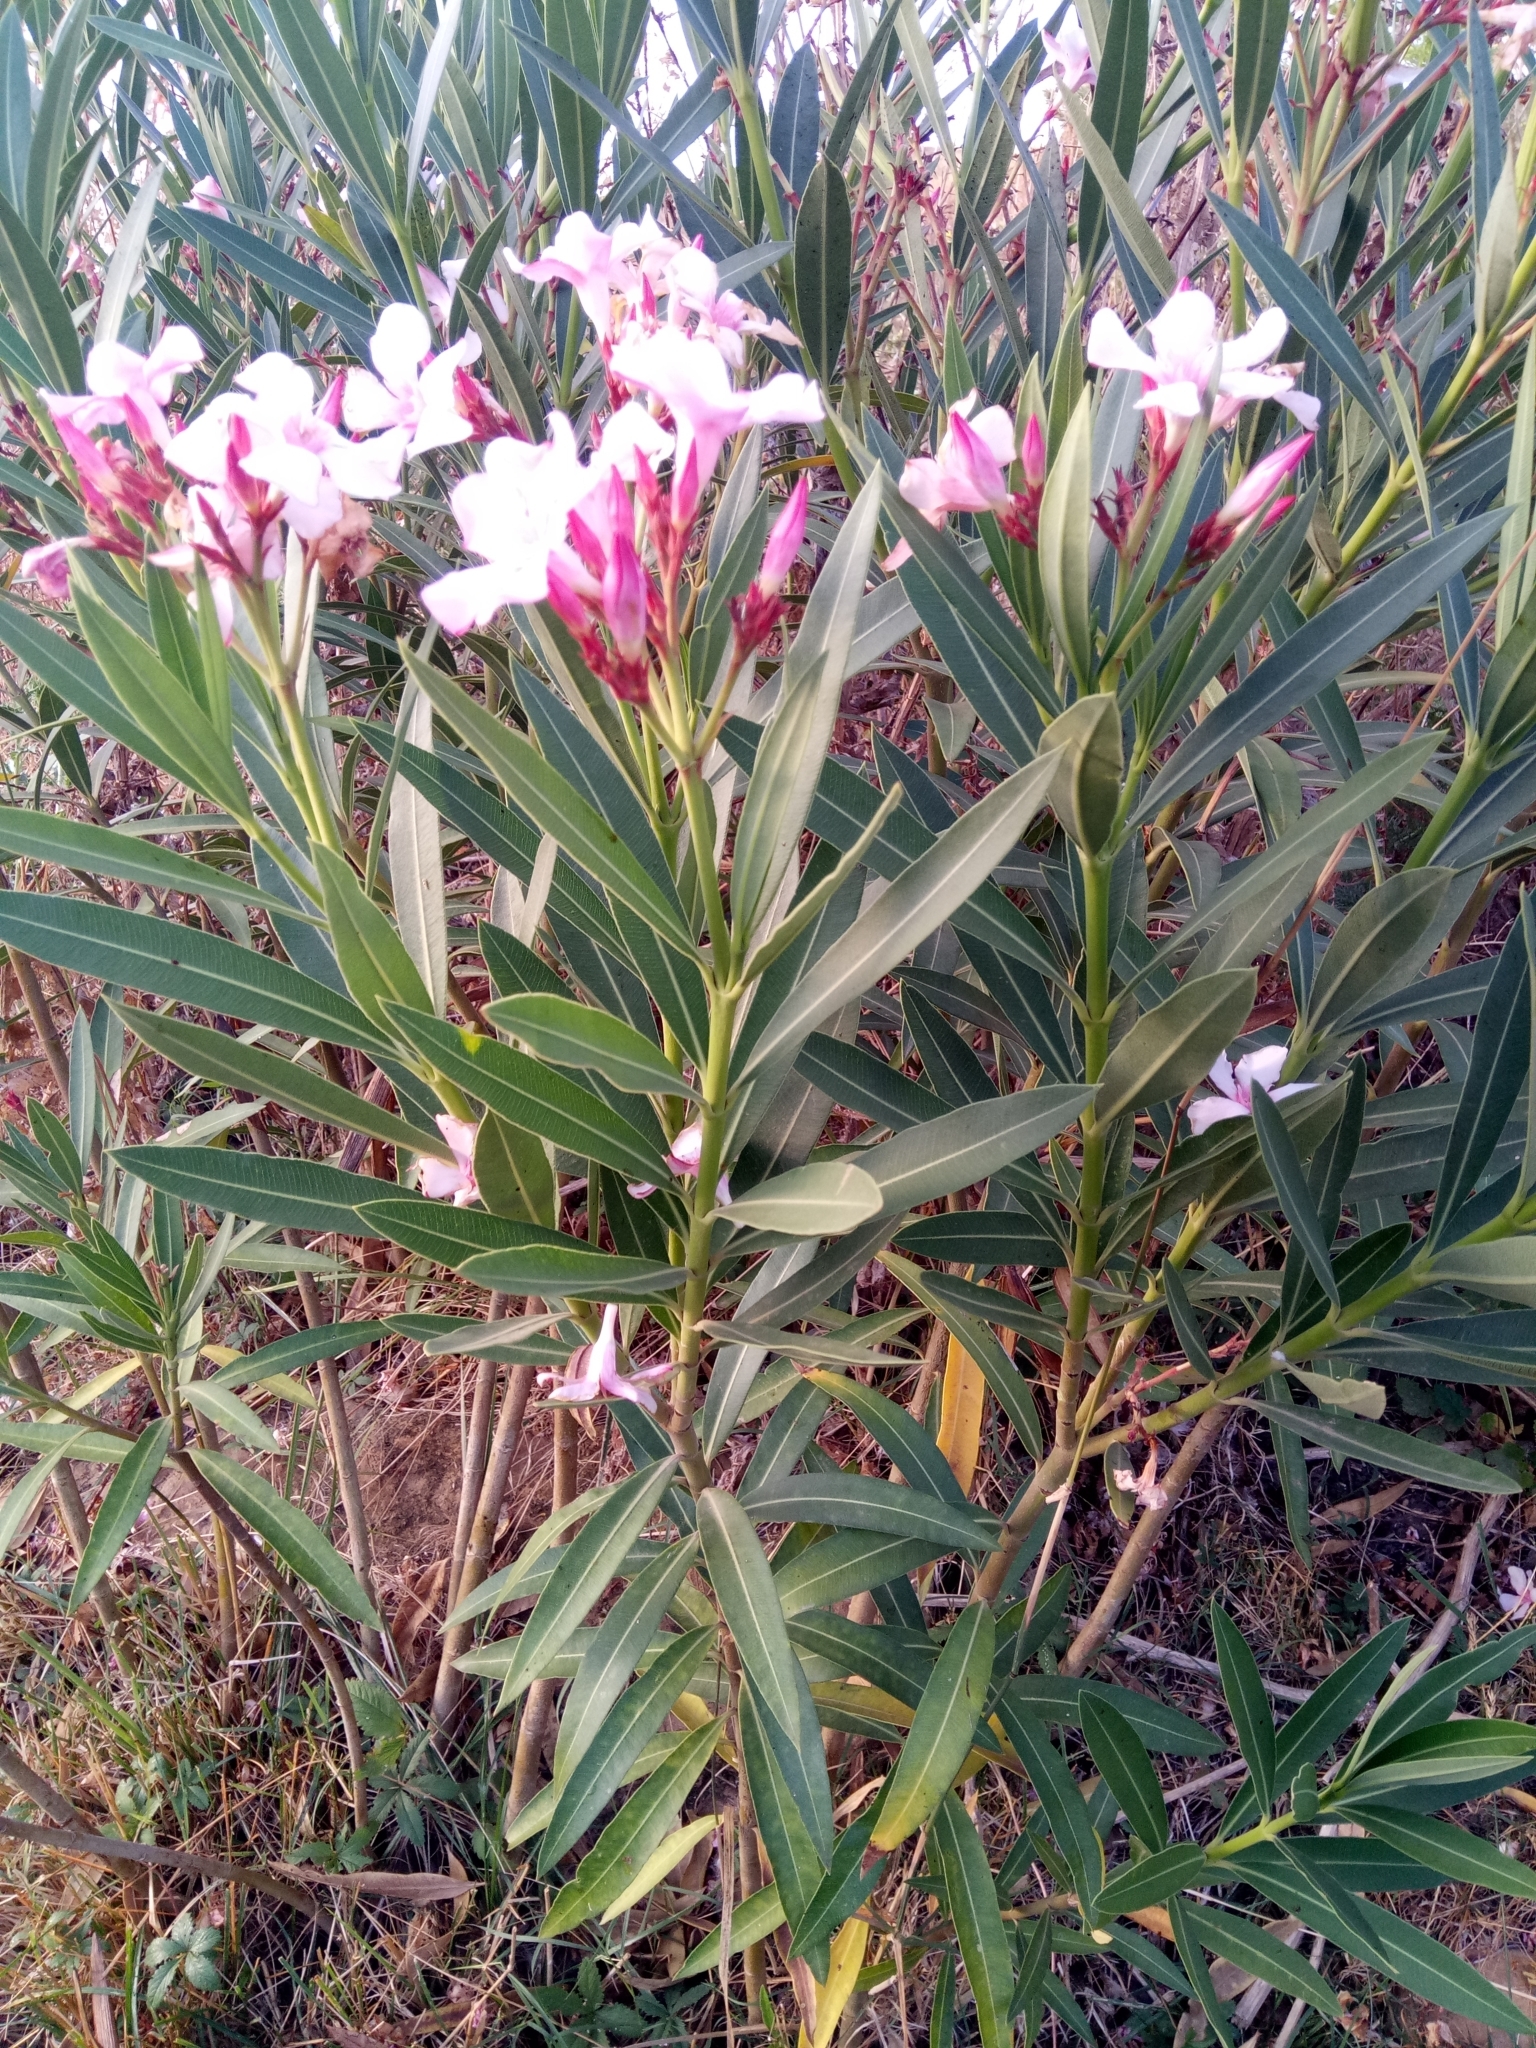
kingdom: Plantae
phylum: Tracheophyta
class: Magnoliopsida
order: Gentianales
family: Apocynaceae
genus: Nerium
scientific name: Nerium oleander
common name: Oleander
